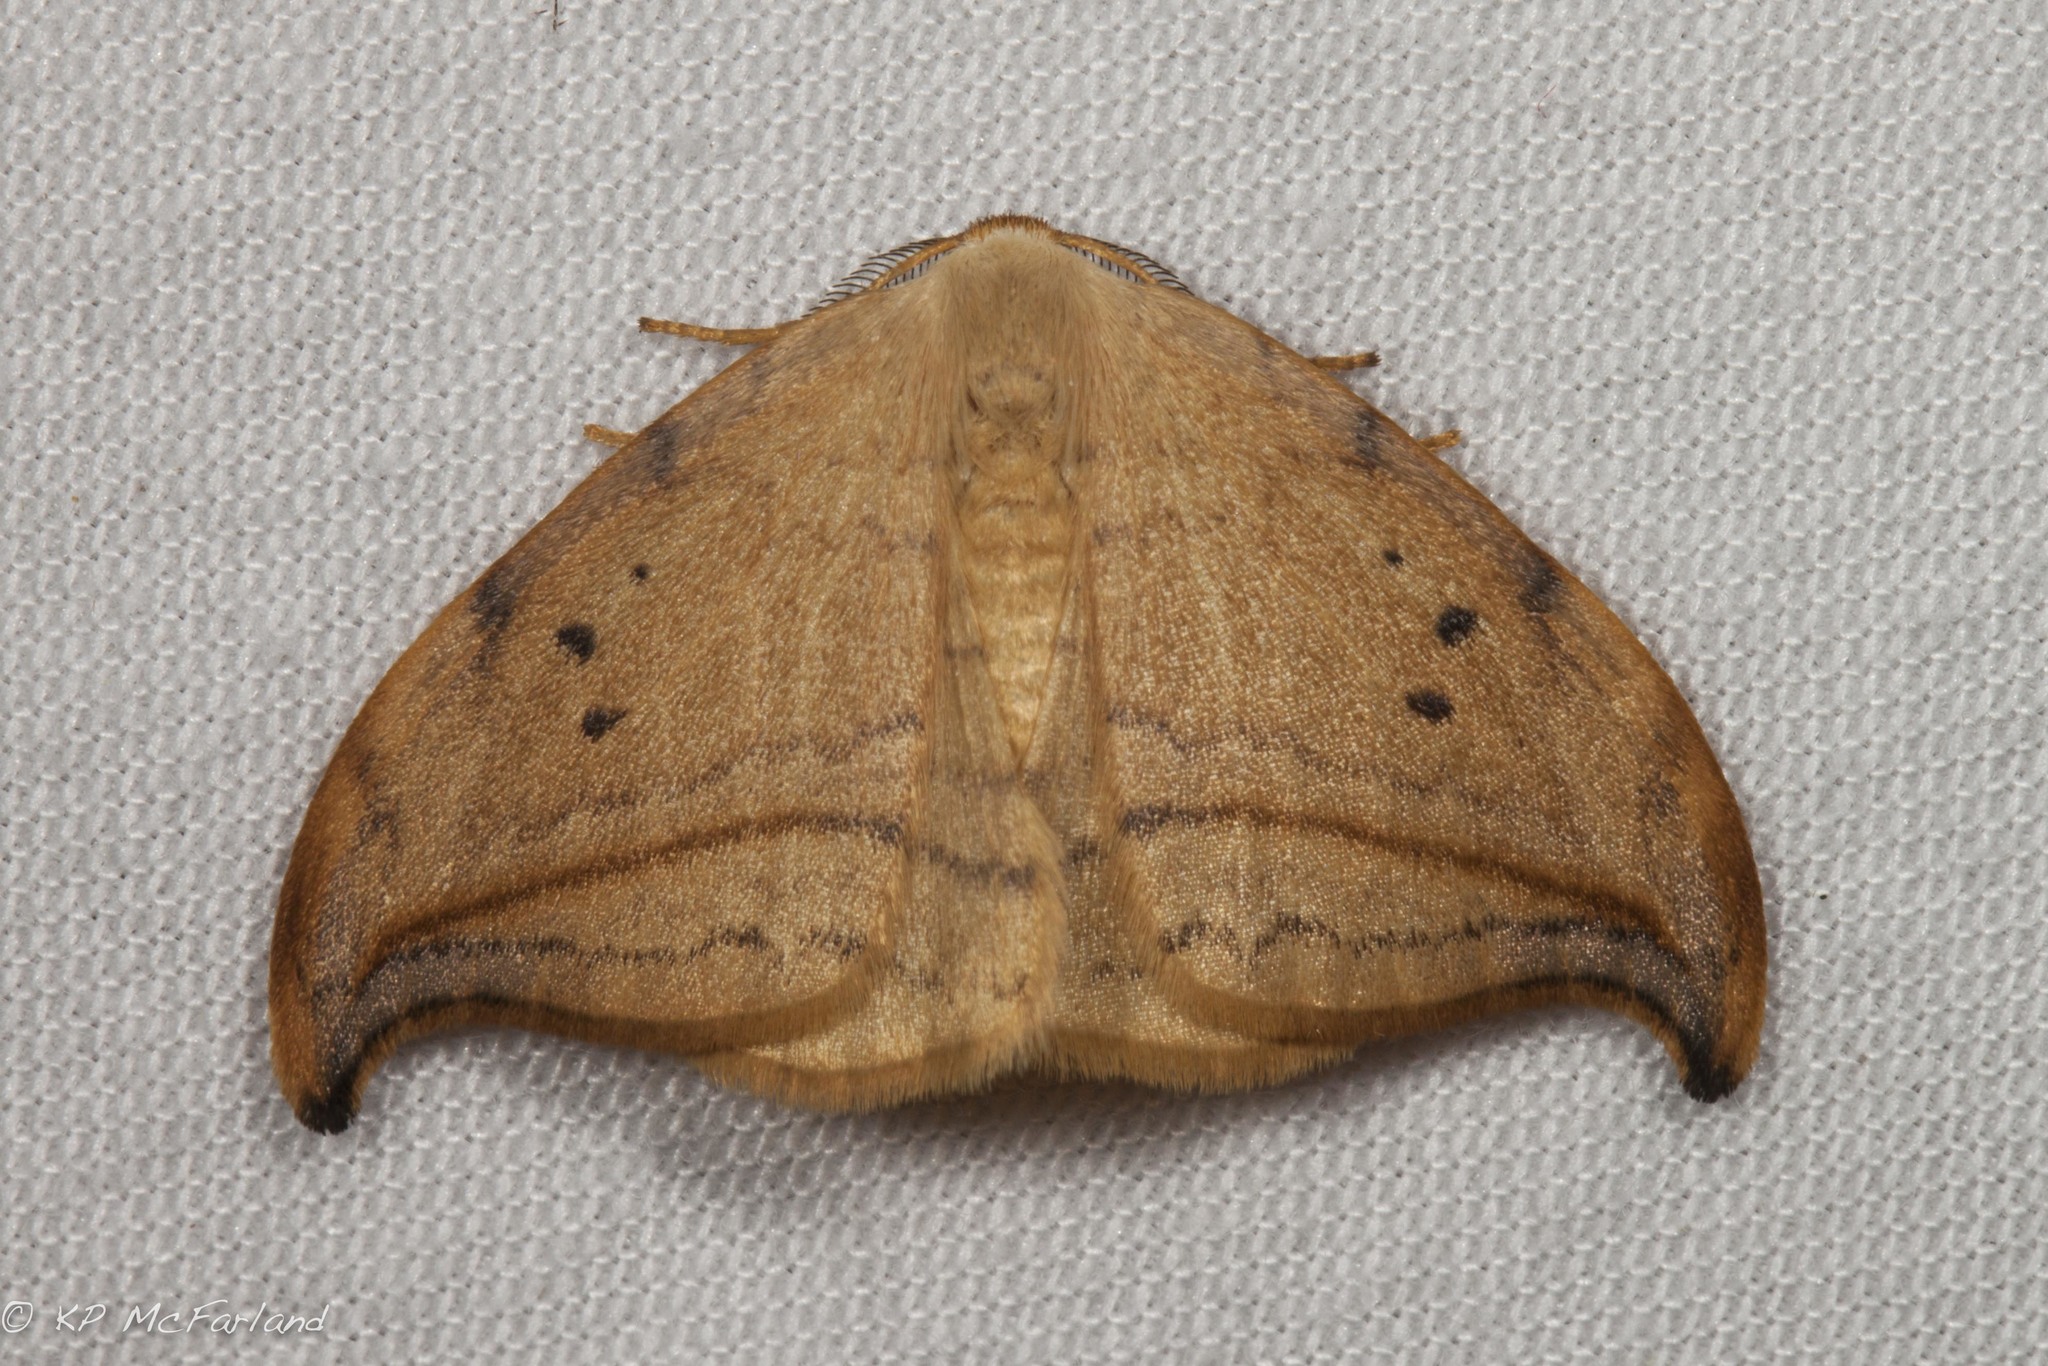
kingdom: Animalia
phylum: Arthropoda
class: Insecta
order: Lepidoptera
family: Drepanidae
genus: Drepana
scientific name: Drepana arcuata
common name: Arched hooktip moth
